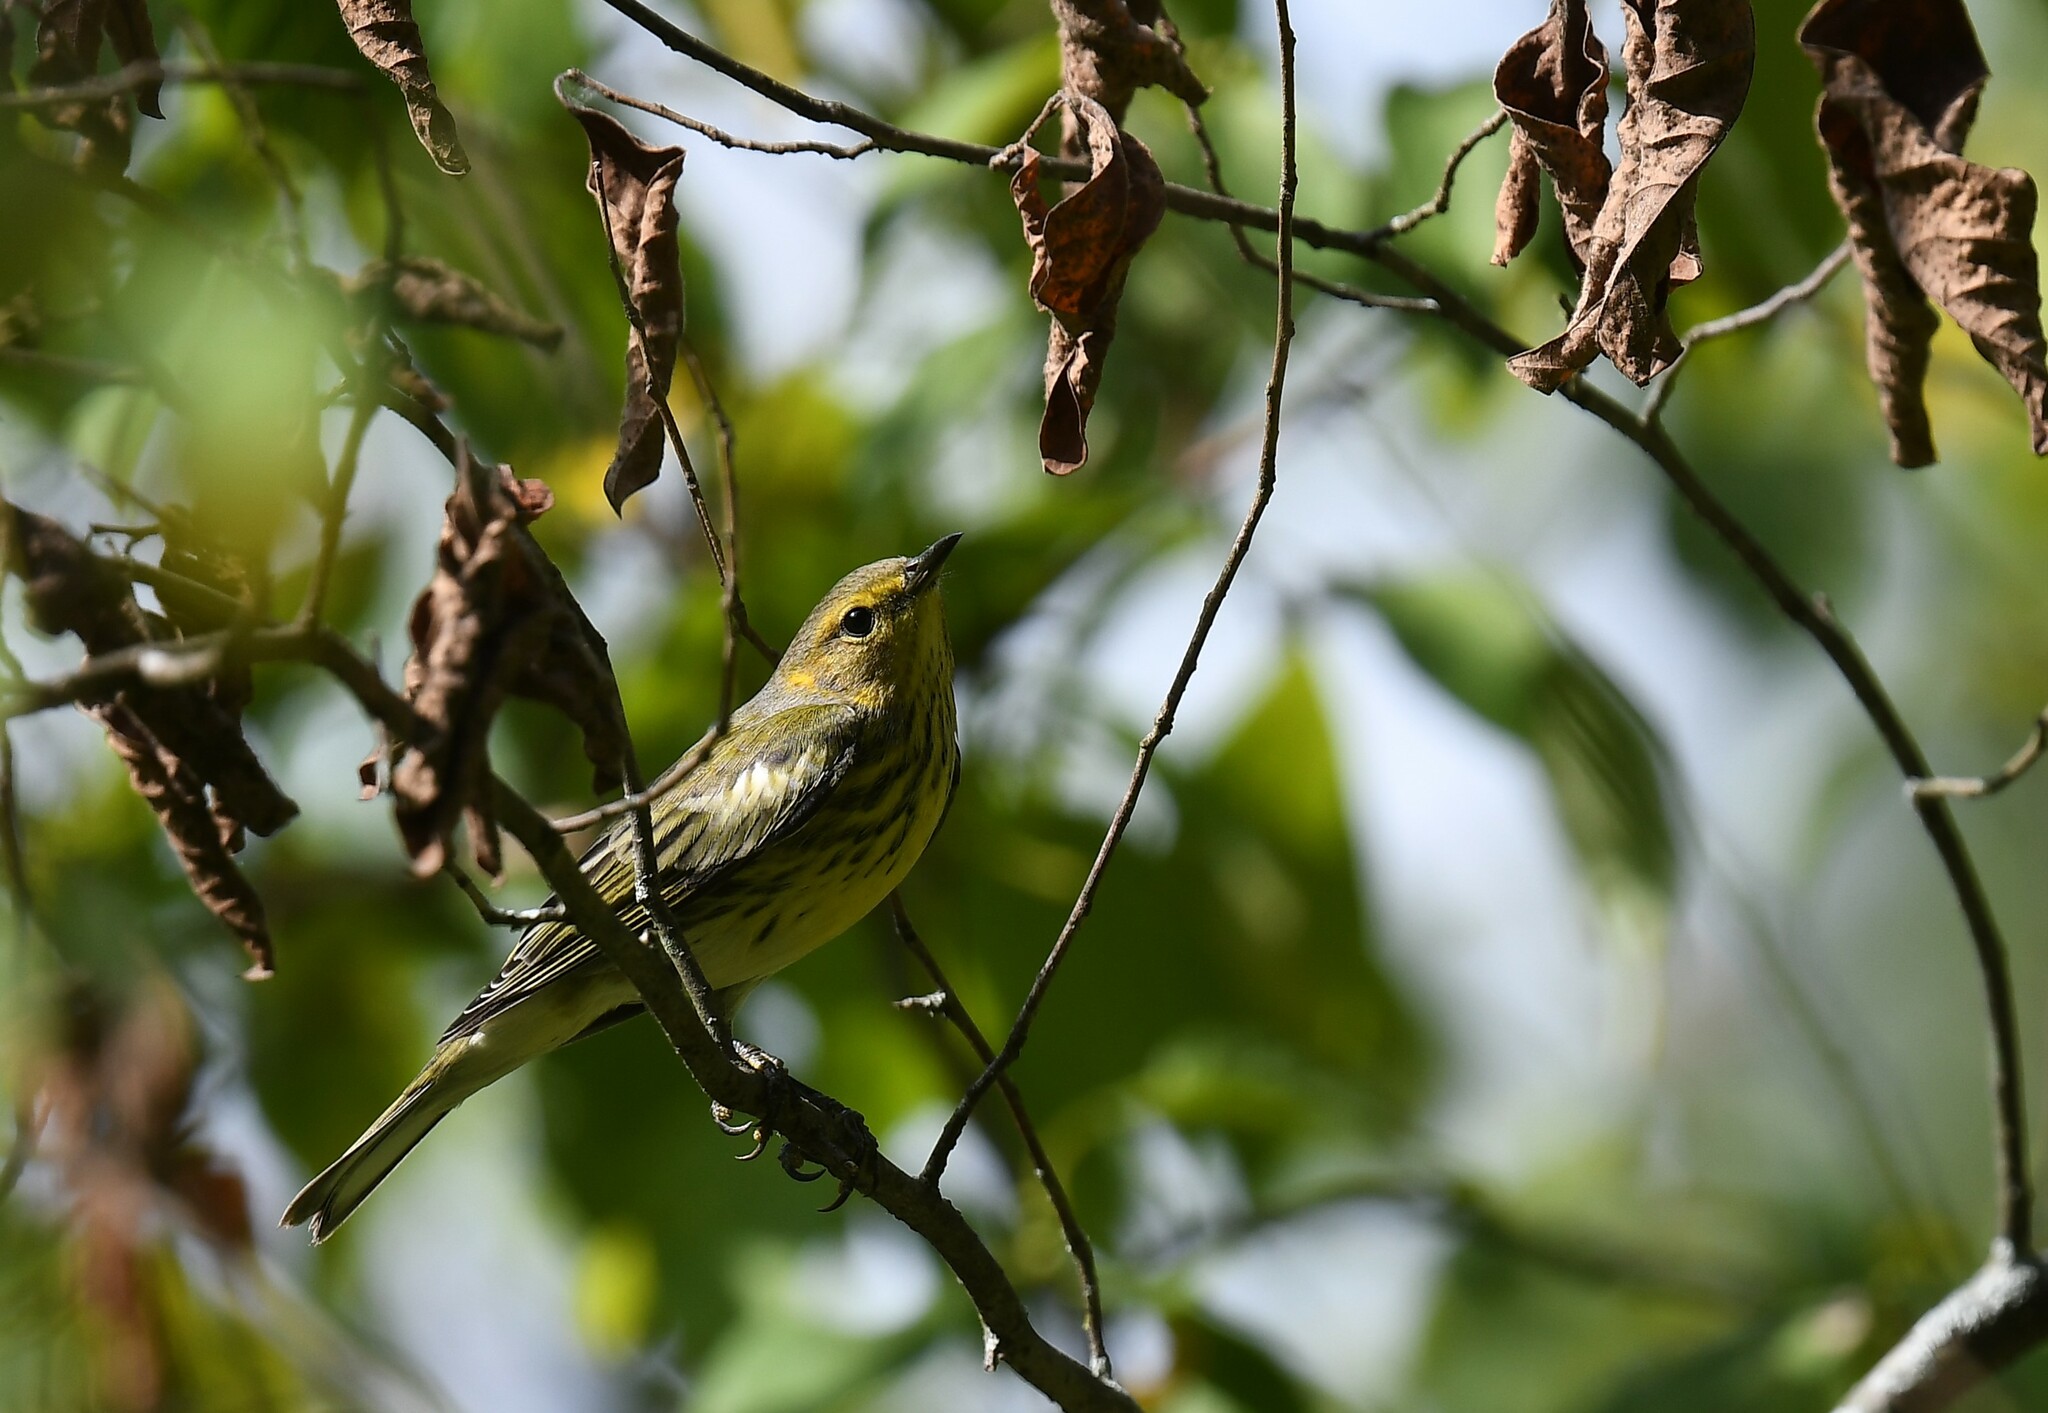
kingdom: Animalia
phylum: Chordata
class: Aves
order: Passeriformes
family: Parulidae
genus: Setophaga
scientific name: Setophaga tigrina
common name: Cape may warbler
